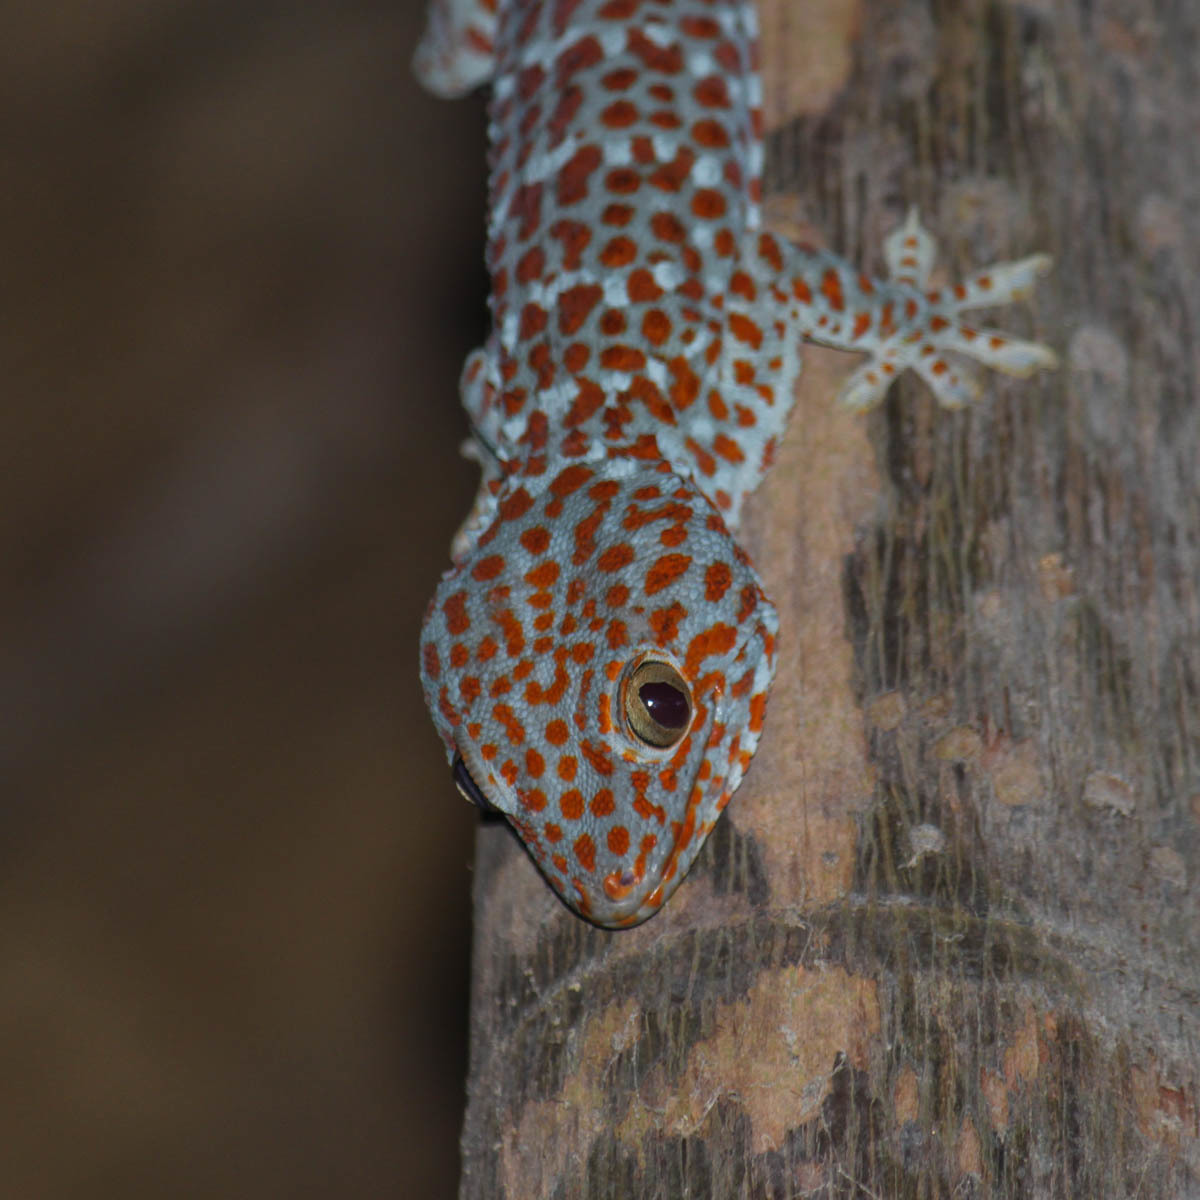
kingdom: Animalia
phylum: Chordata
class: Squamata
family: Gekkonidae
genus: Gekko
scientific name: Gekko gecko
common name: Tokay gecko
